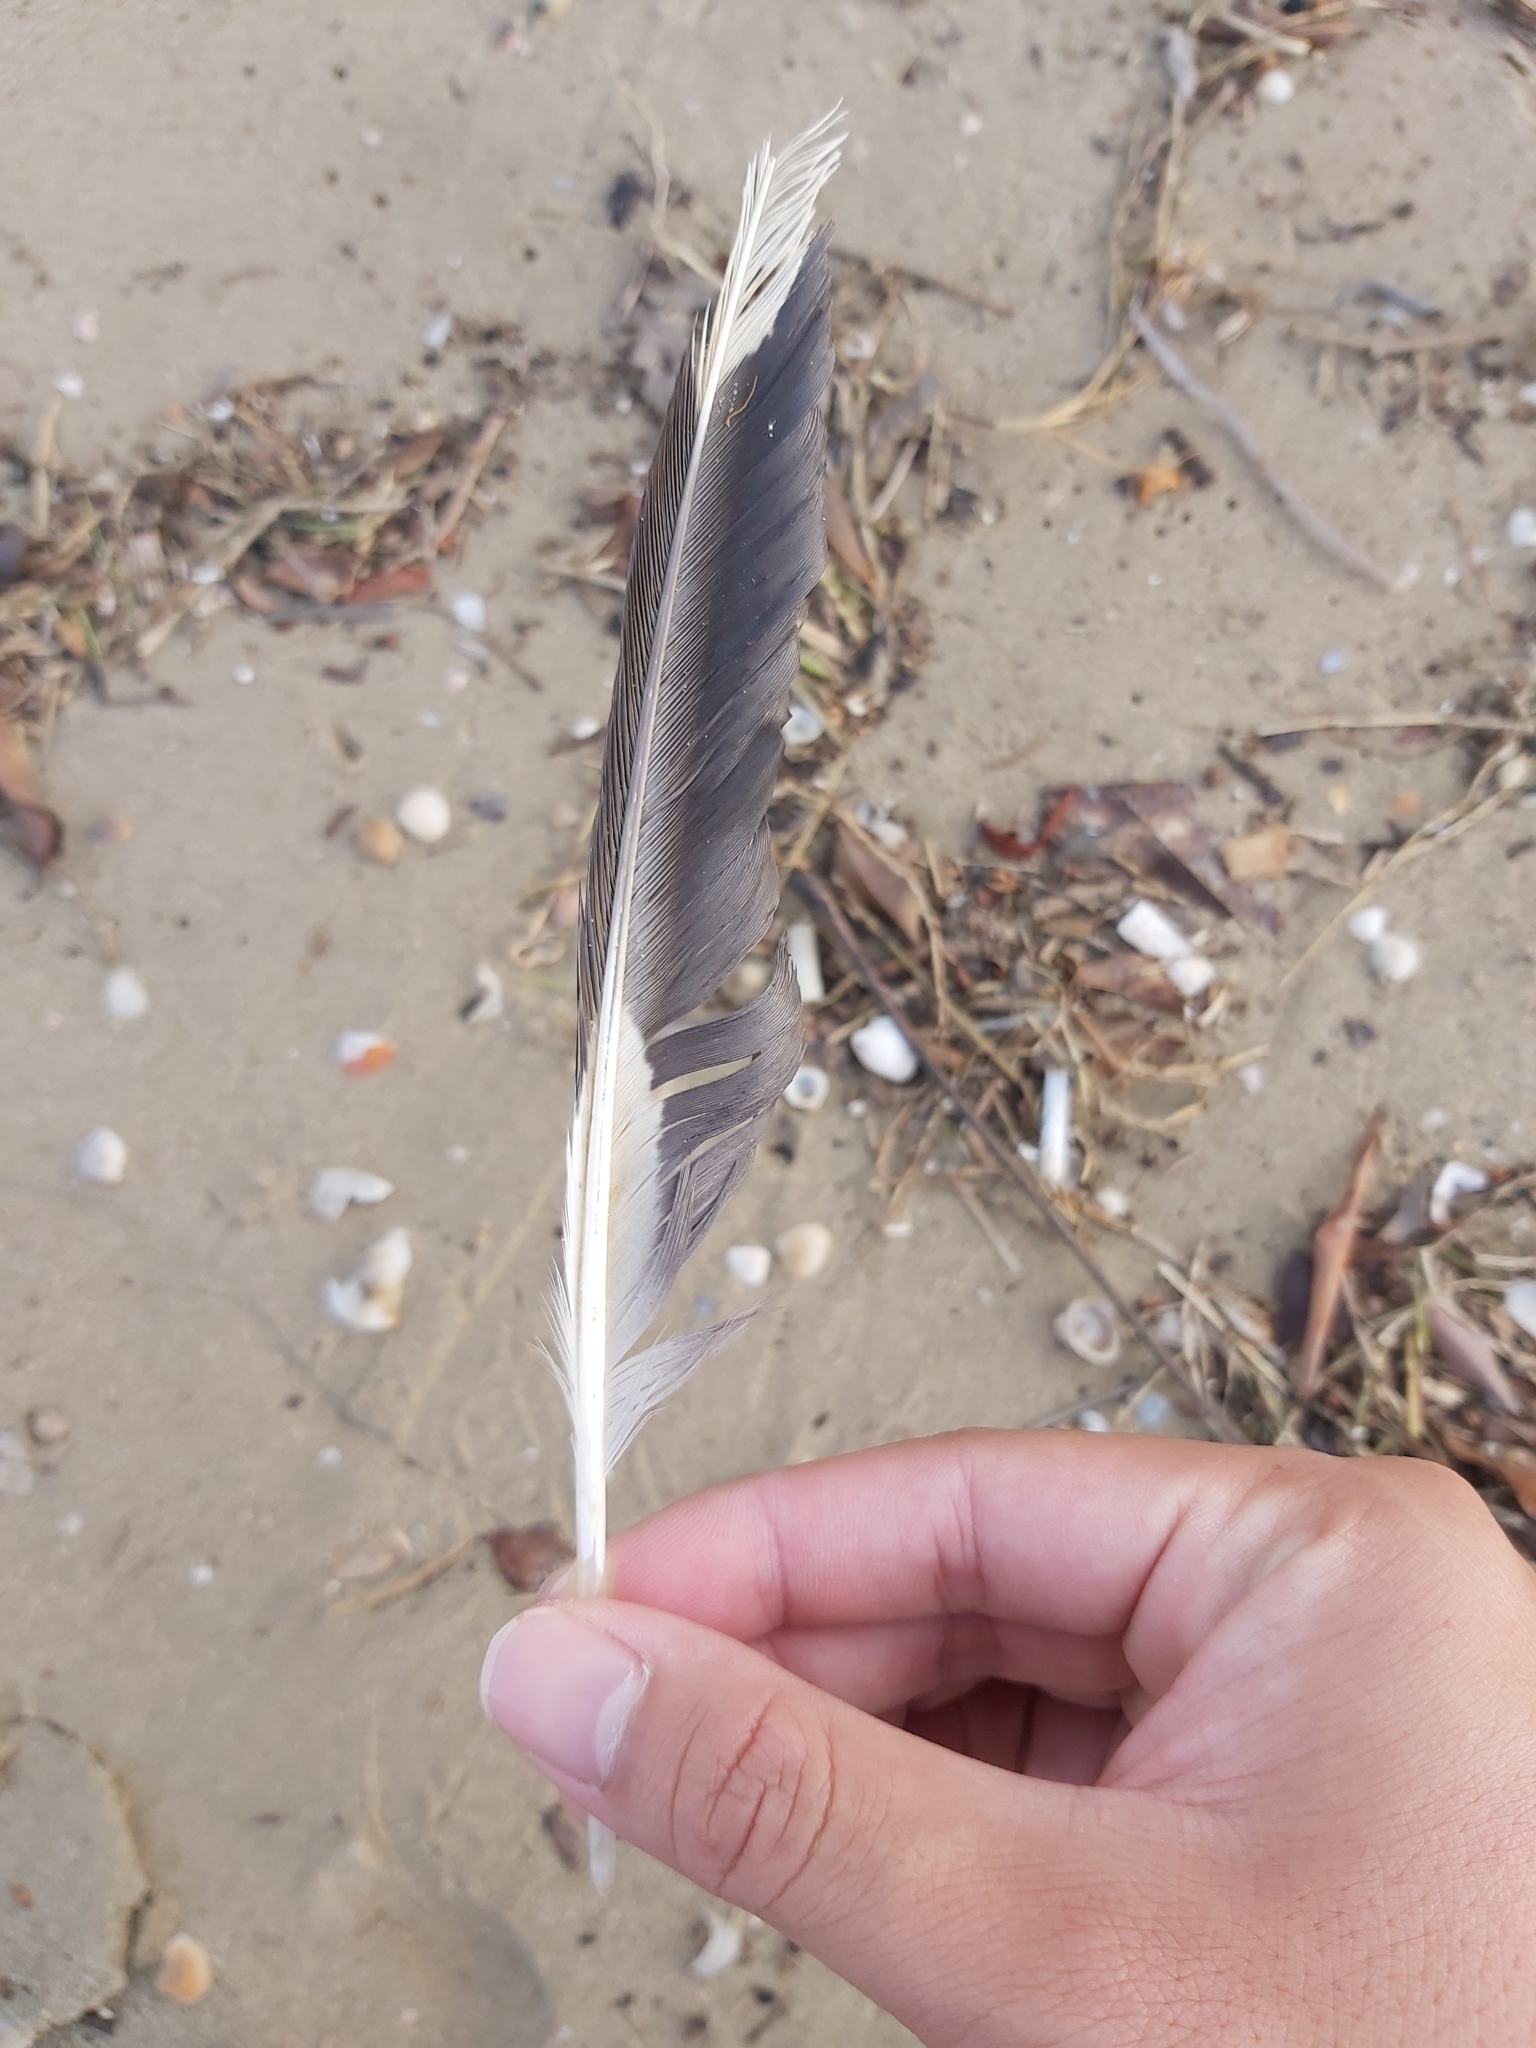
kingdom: Animalia
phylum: Chordata
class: Aves
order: Charadriiformes
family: Laridae
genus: Chroicocephalus
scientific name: Chroicocephalus novaehollandiae
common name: Silver gull
